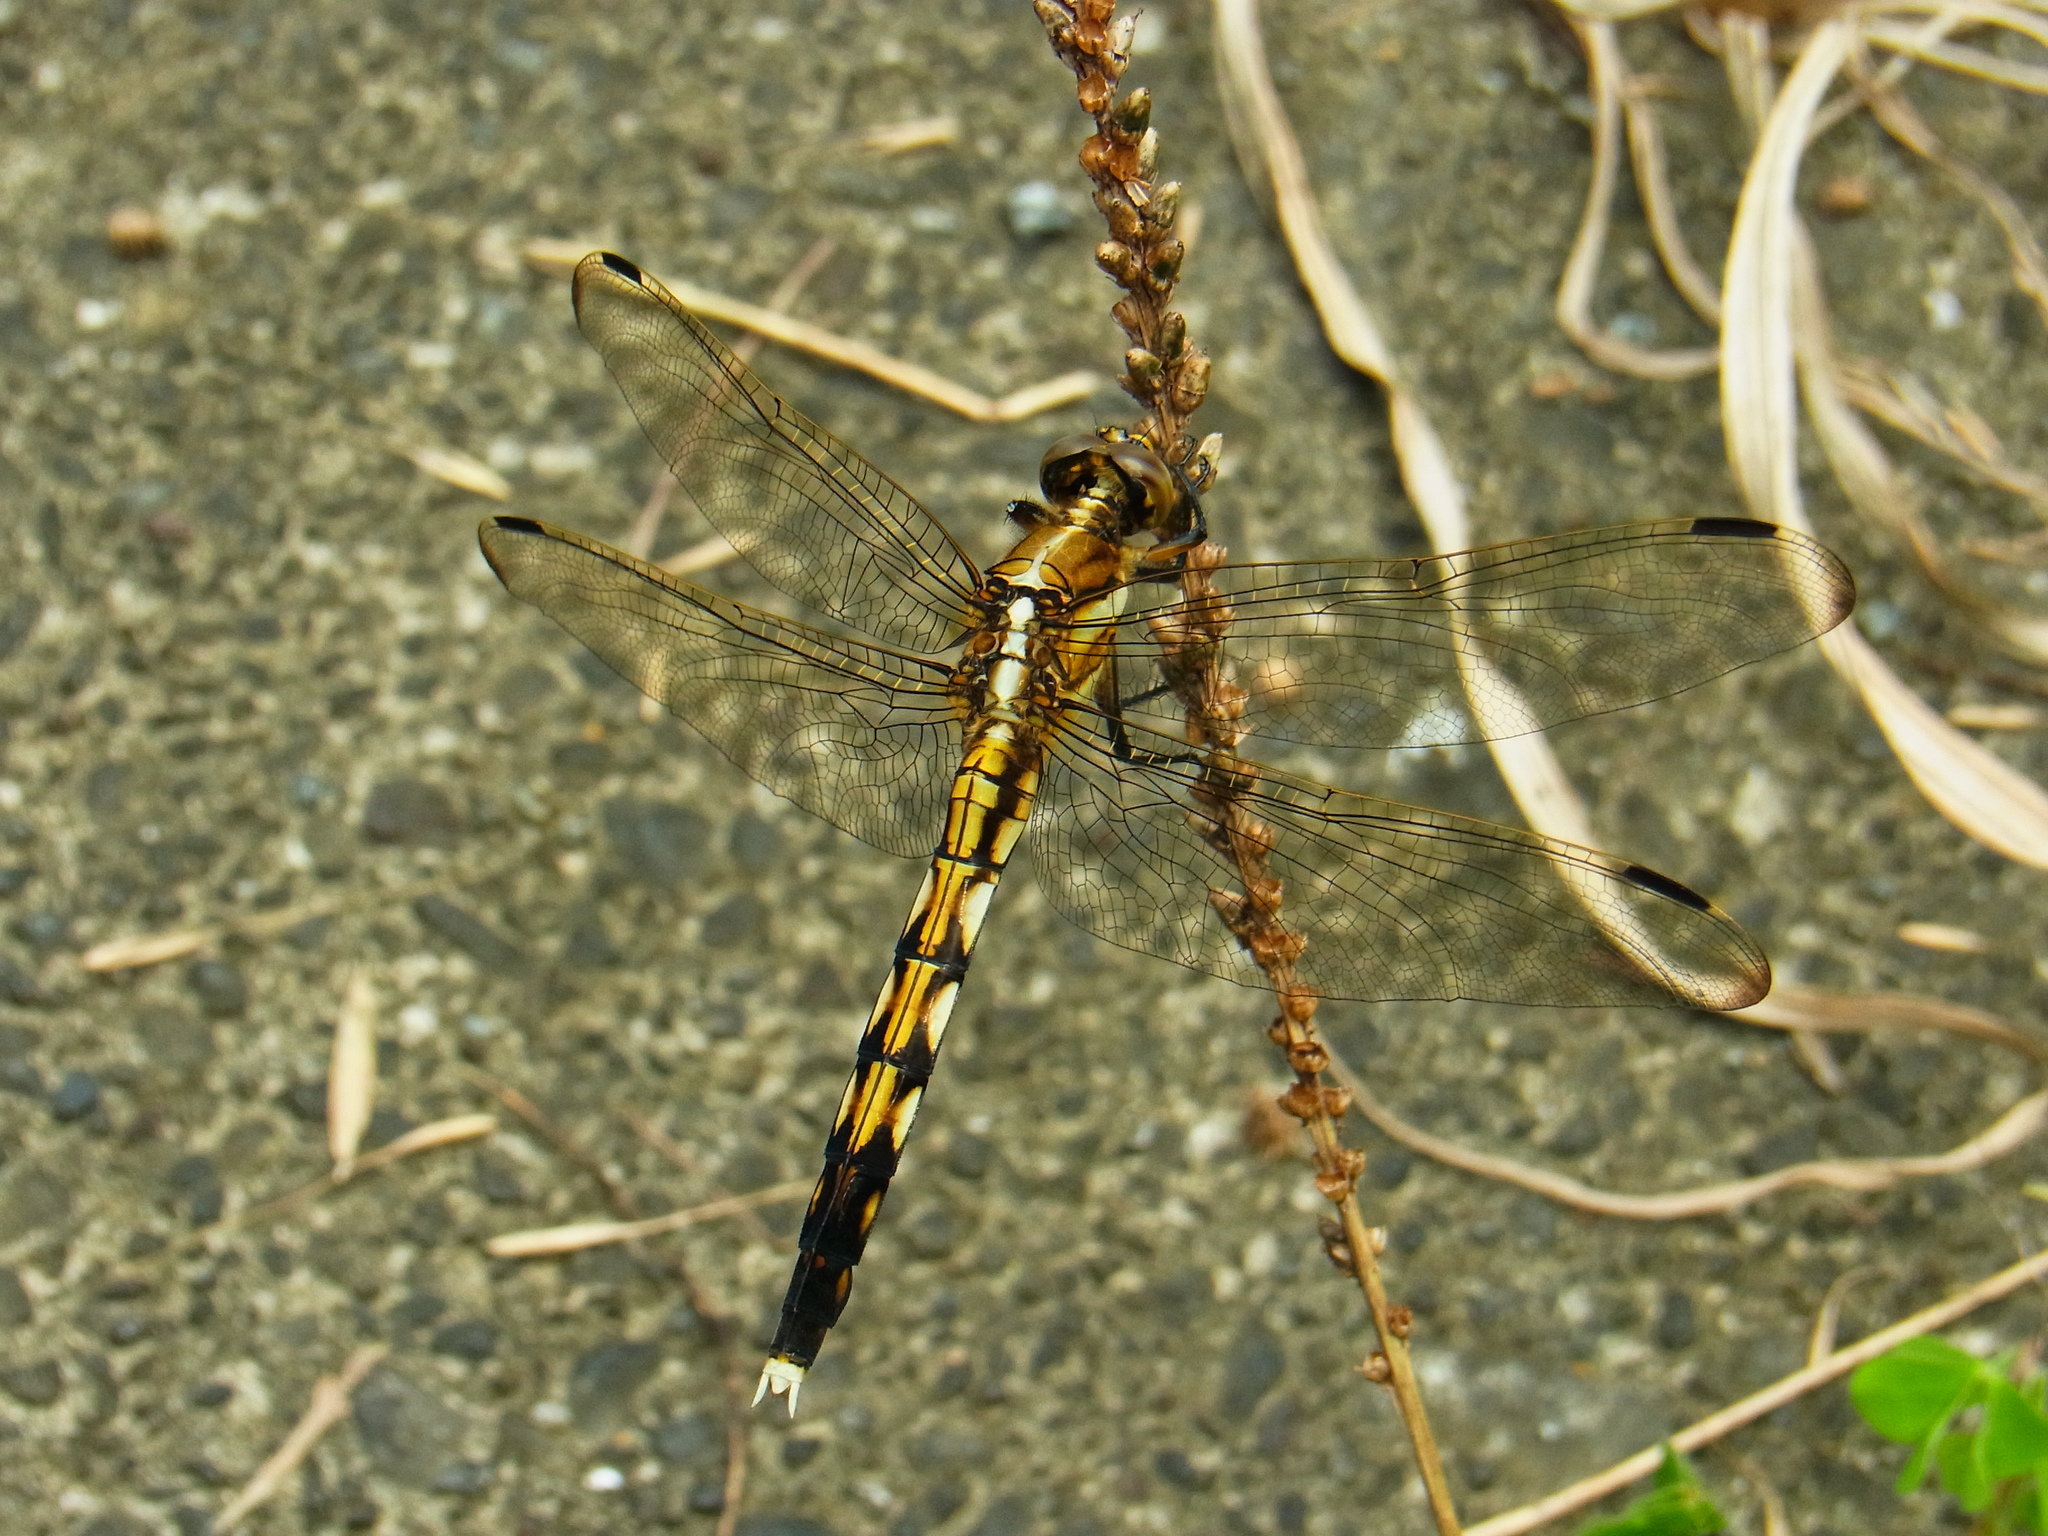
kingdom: Animalia
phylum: Arthropoda
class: Insecta
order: Odonata
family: Libellulidae
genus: Orthetrum
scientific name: Orthetrum albistylum
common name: White-tailed skimmer
